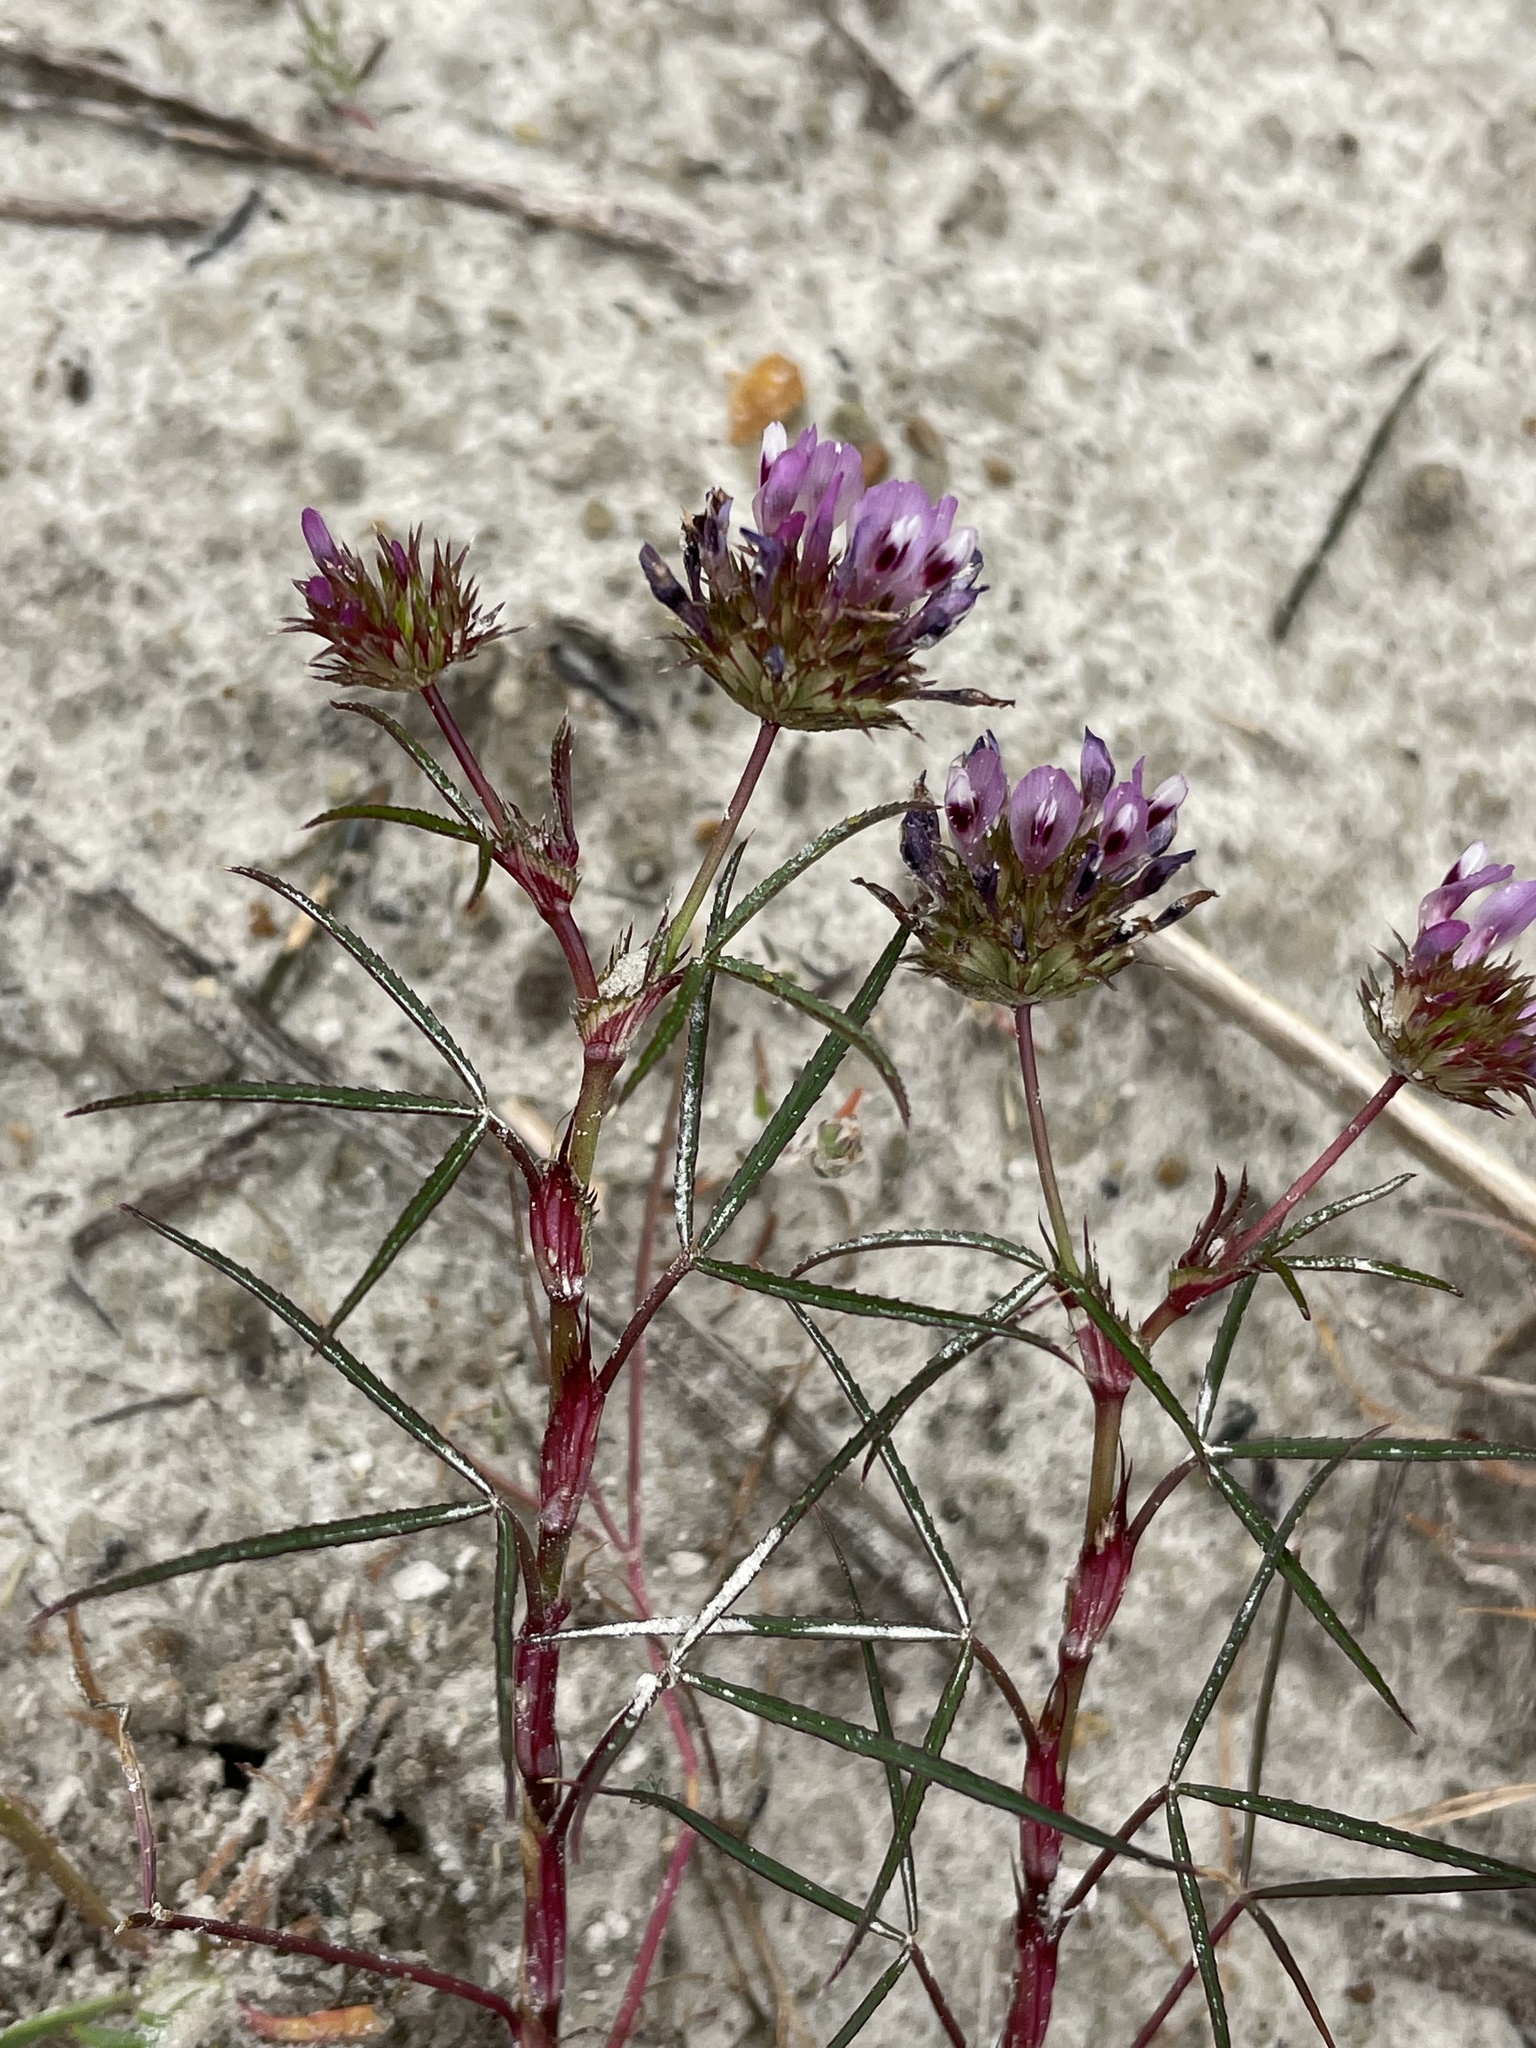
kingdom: Plantae
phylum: Tracheophyta
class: Magnoliopsida
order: Fabales
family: Fabaceae
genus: Trifolium
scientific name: Trifolium willdenovii
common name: Tomcat clover
